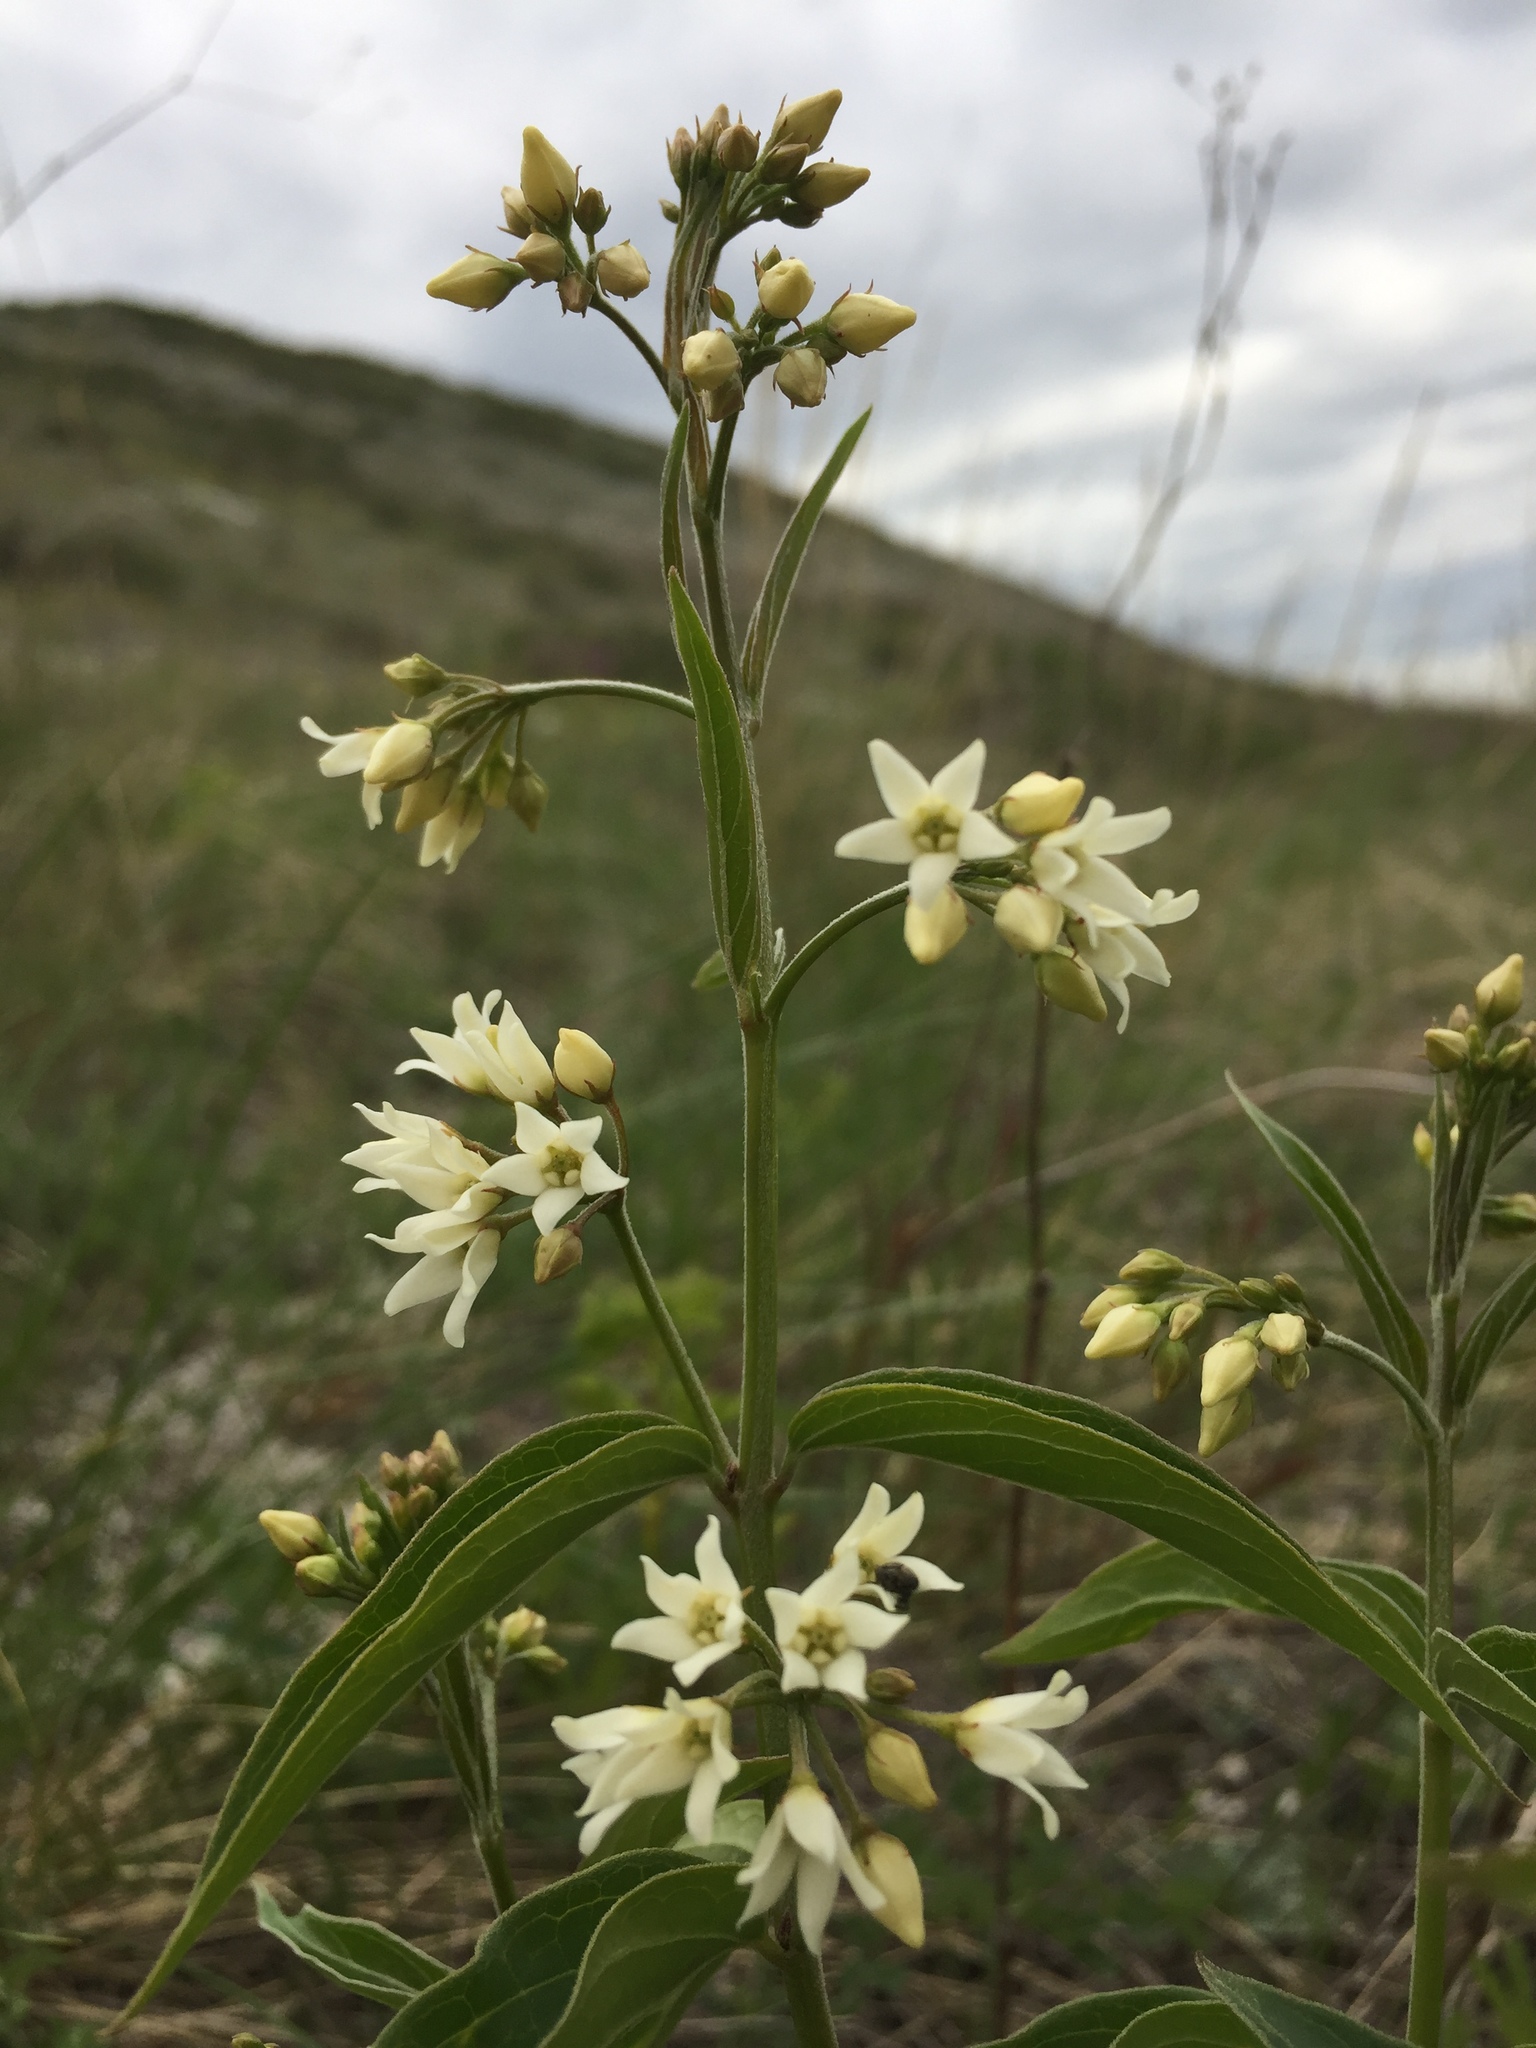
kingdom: Plantae
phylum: Tracheophyta
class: Magnoliopsida
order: Gentianales
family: Apocynaceae
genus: Vincetoxicum
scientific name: Vincetoxicum hirundinaria
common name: White swallowwort
